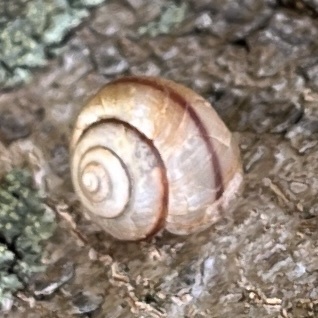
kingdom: Animalia
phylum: Mollusca
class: Gastropoda
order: Stylommatophora
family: Camaenidae
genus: Bradybaena
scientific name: Bradybaena similaris
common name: Asian trampsnail
